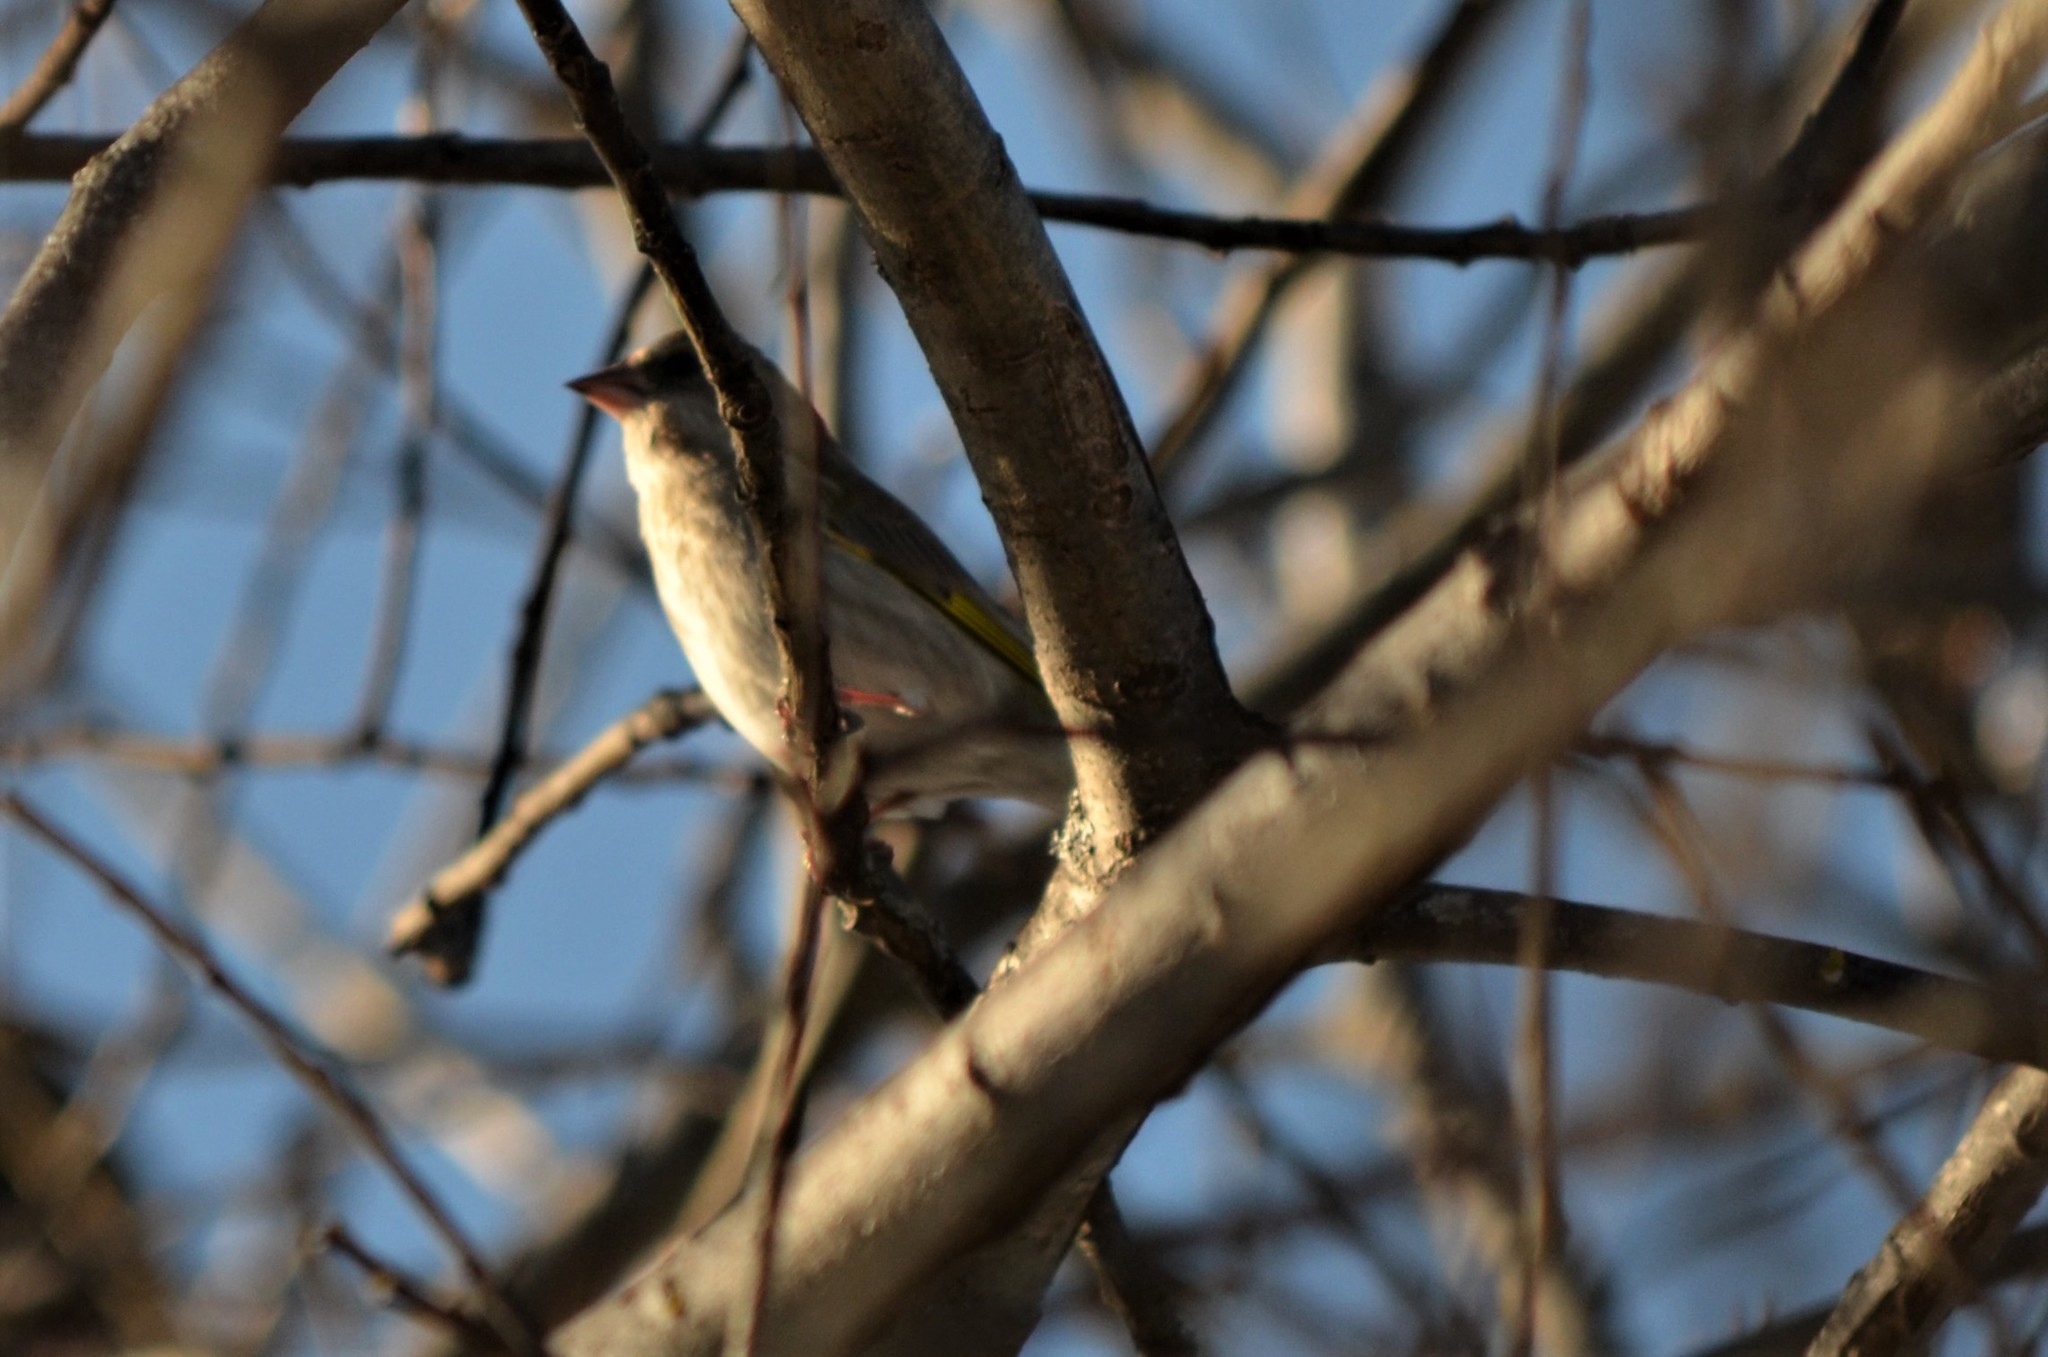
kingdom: Plantae
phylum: Tracheophyta
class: Liliopsida
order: Poales
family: Poaceae
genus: Chloris
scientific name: Chloris chloris
